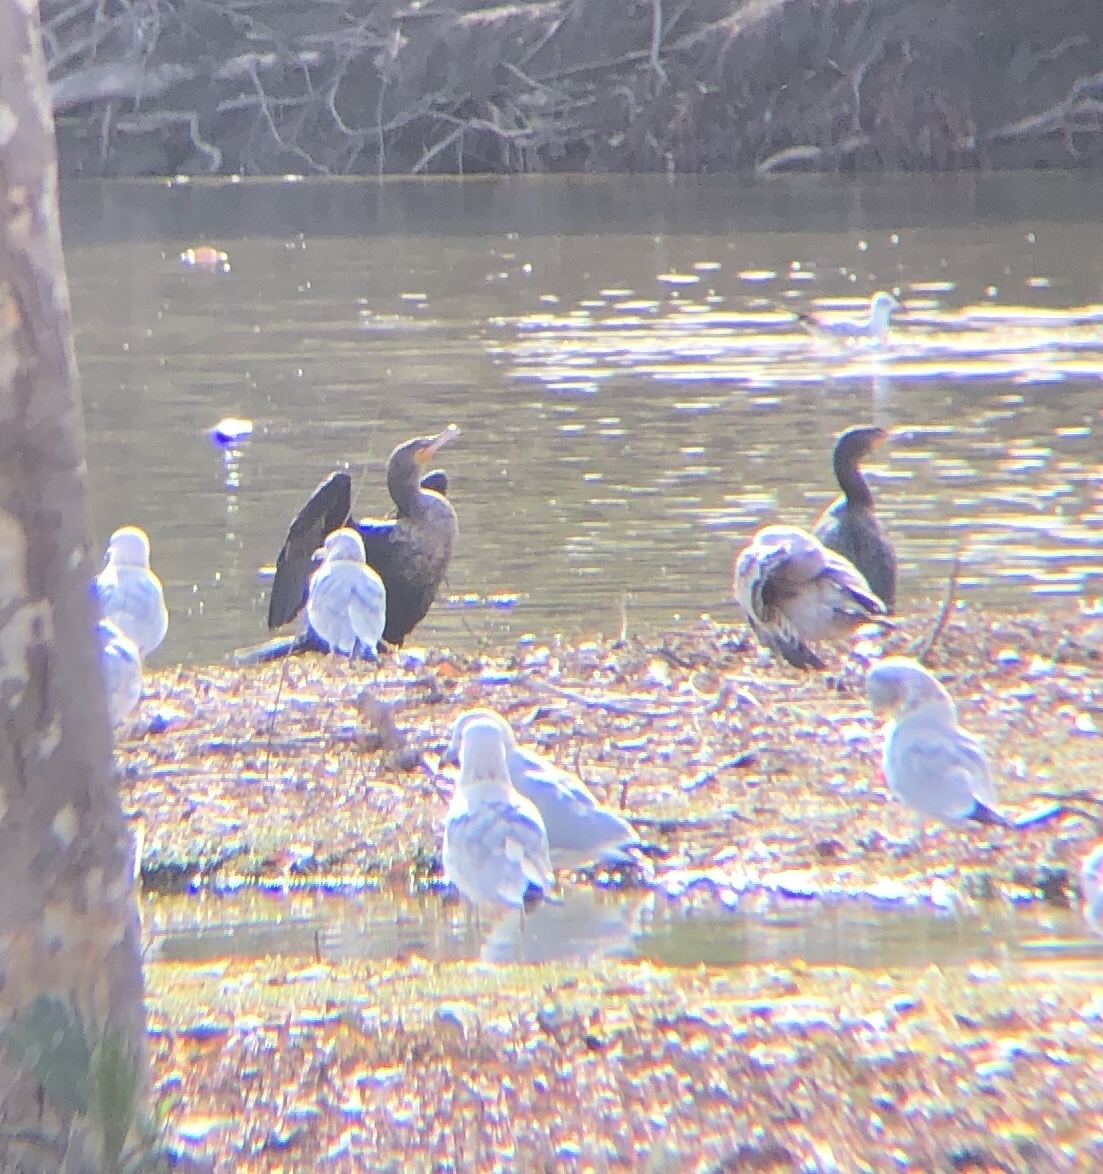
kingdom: Animalia
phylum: Chordata
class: Aves
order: Suliformes
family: Phalacrocoracidae
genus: Phalacrocorax
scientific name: Phalacrocorax auritus
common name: Double-crested cormorant
